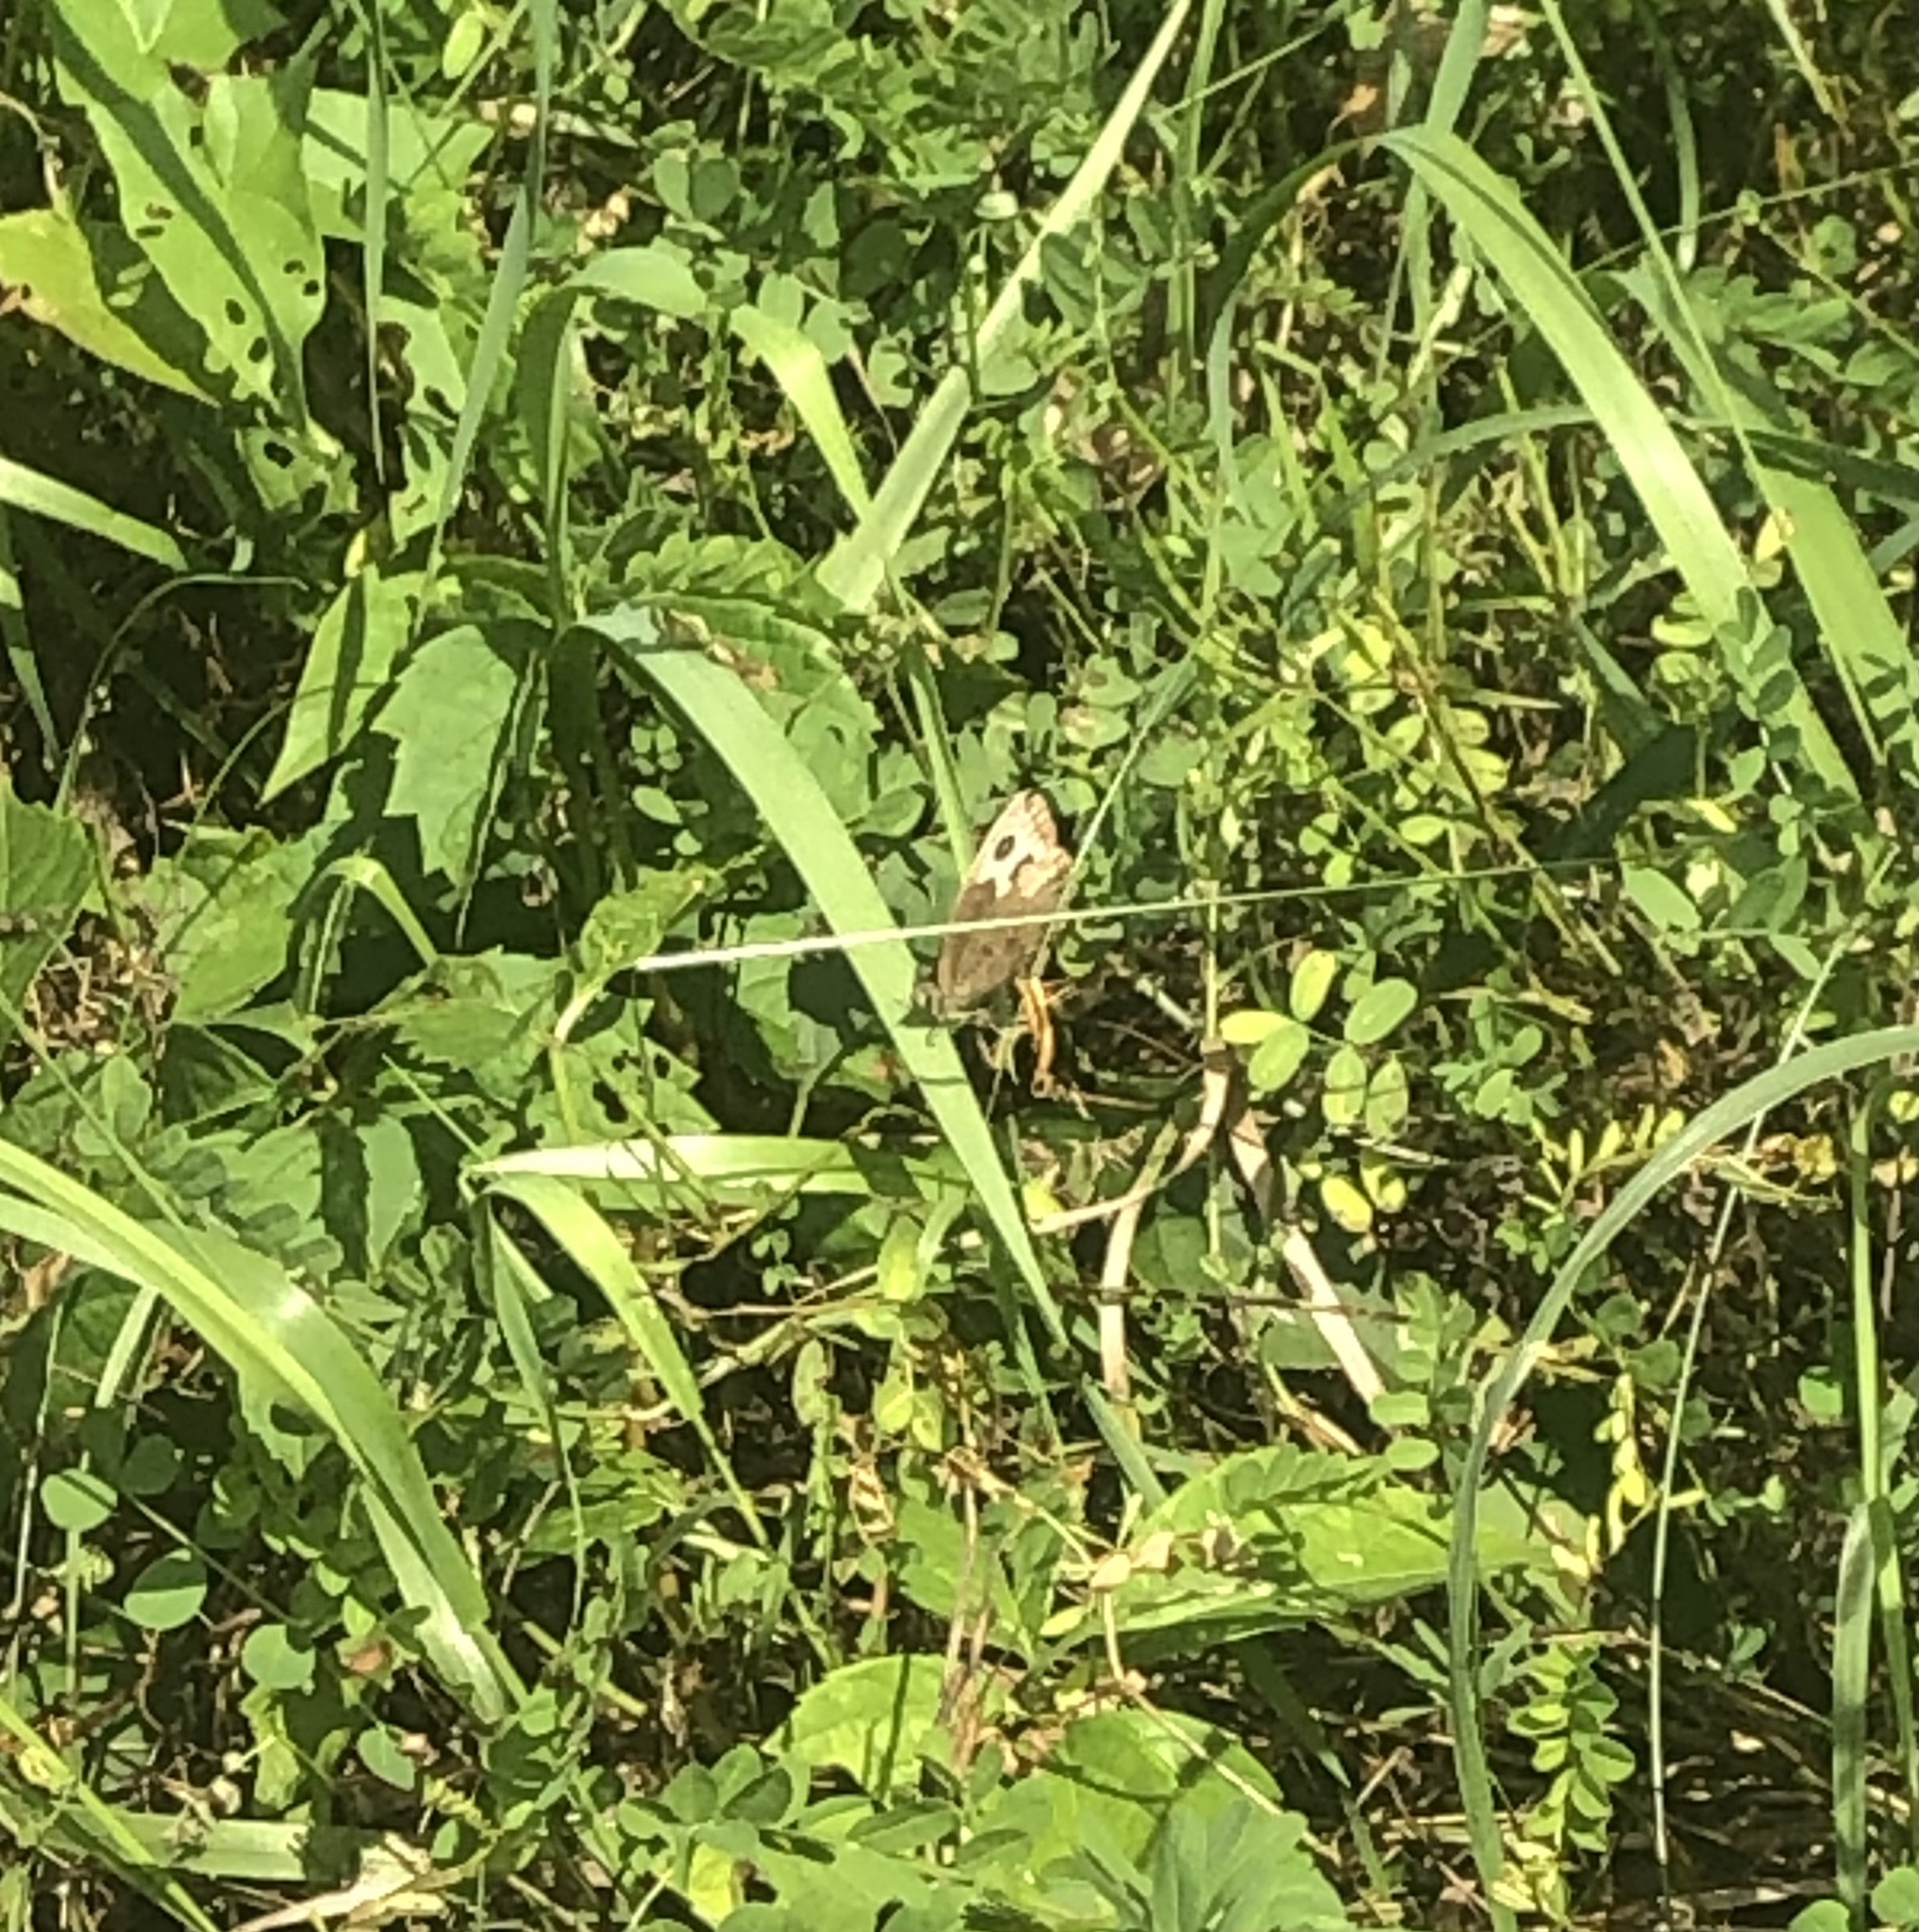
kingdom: Animalia
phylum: Arthropoda
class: Insecta
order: Lepidoptera
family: Nymphalidae
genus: Cercyonis
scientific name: Cercyonis pegala
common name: Common wood-nymph
